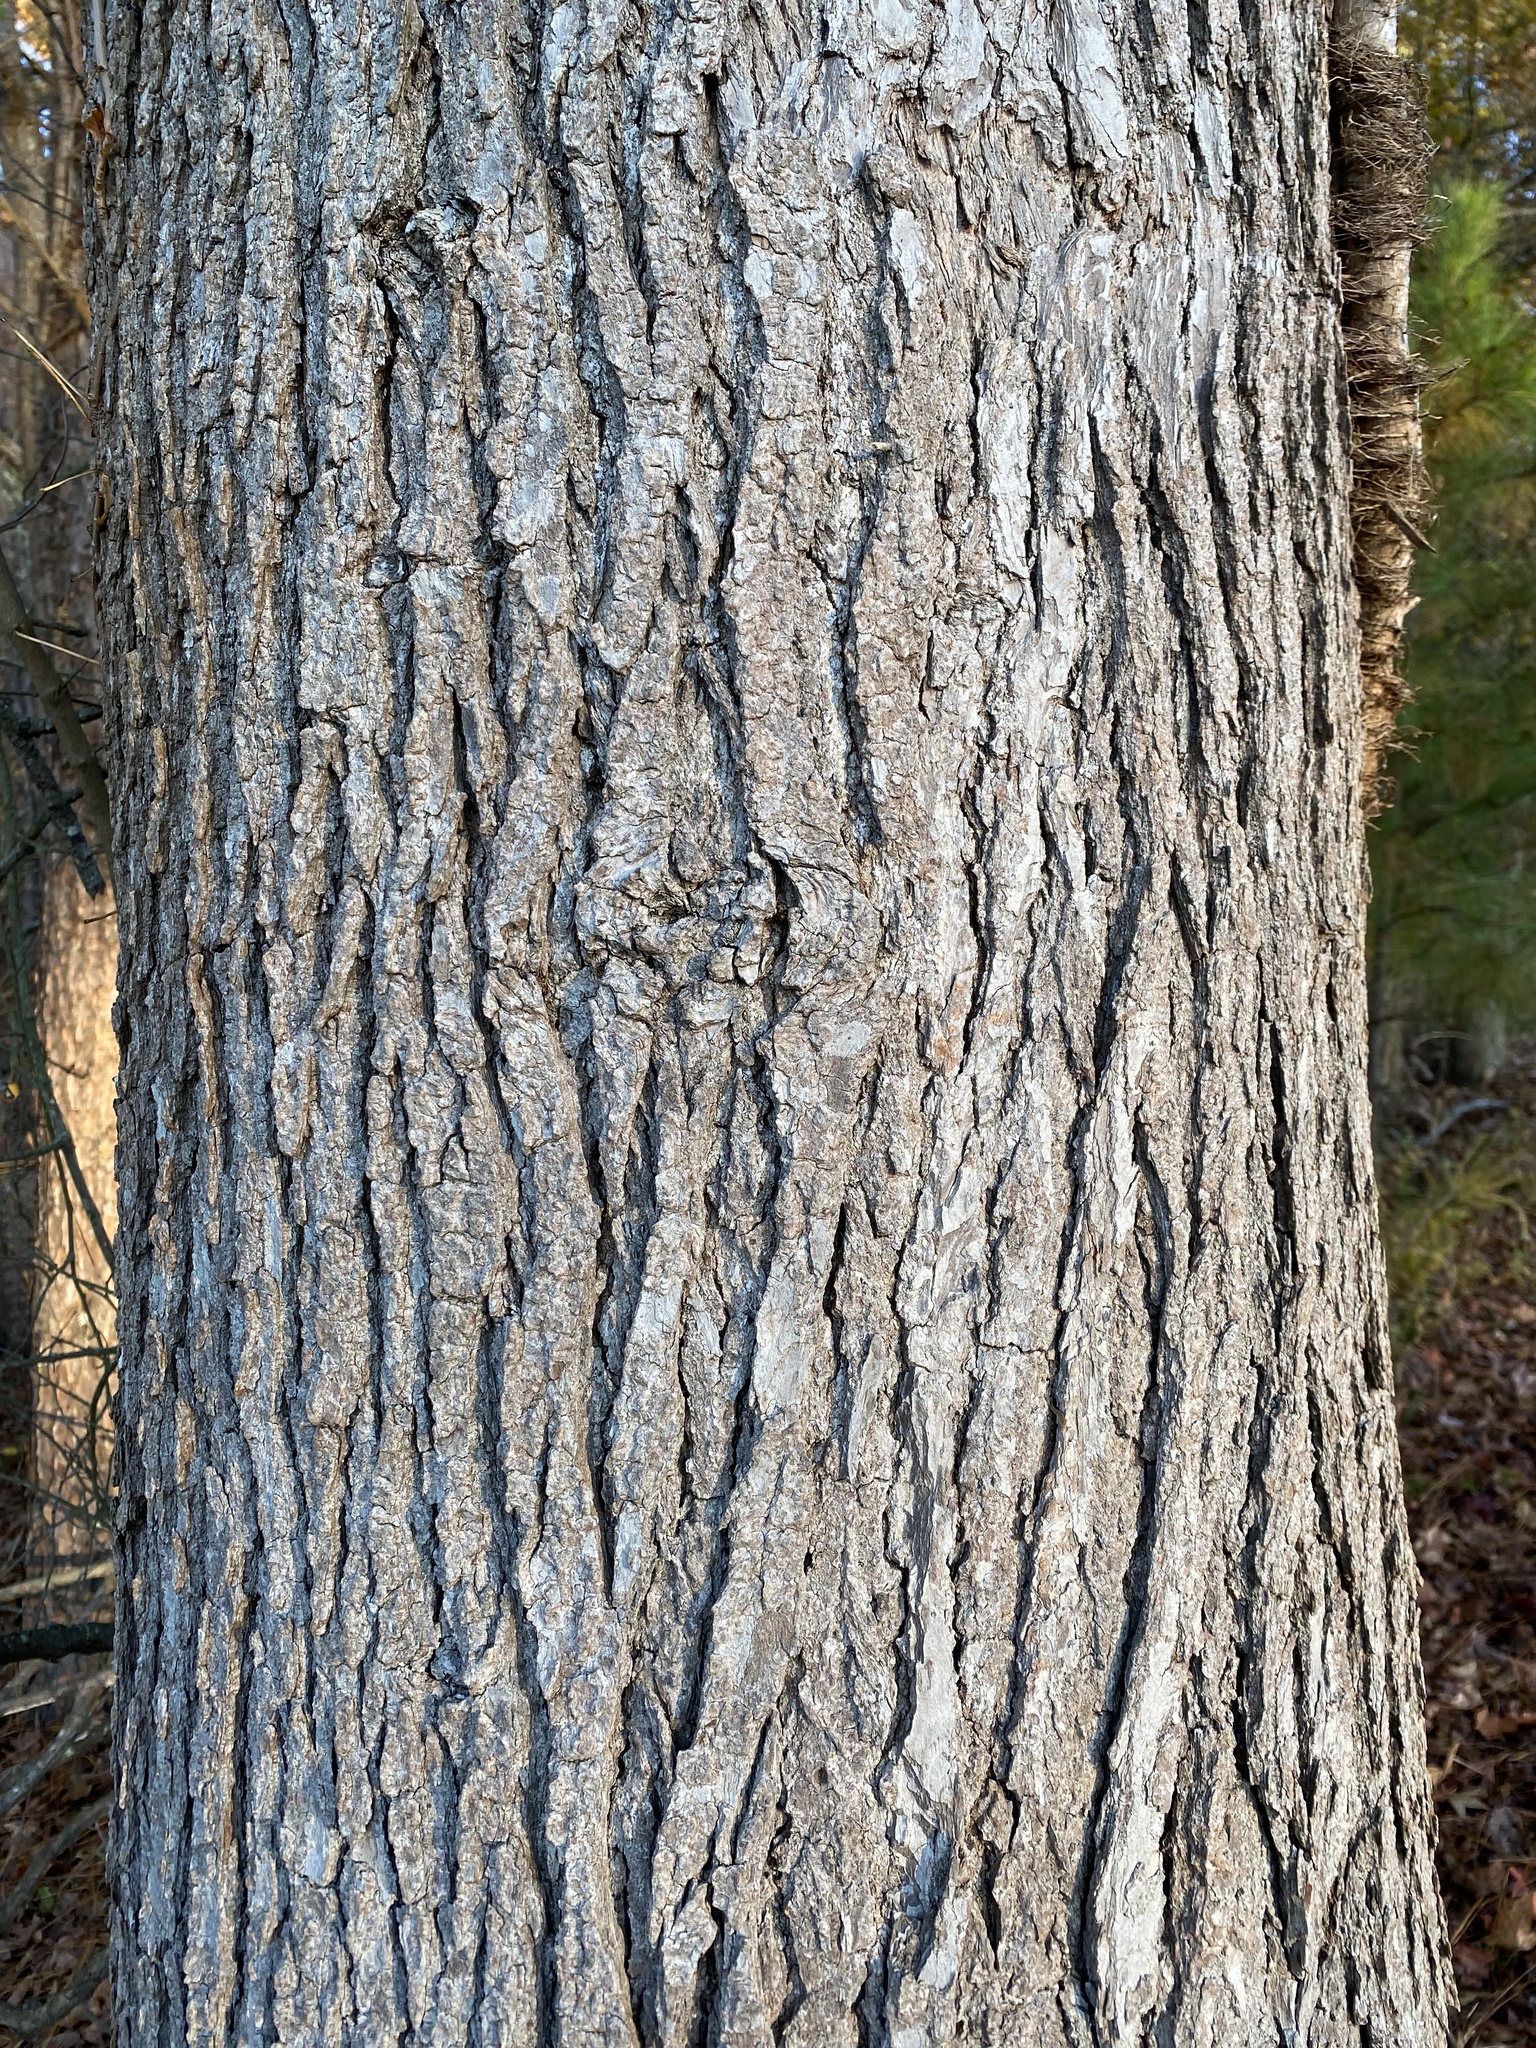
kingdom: Plantae
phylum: Tracheophyta
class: Magnoliopsida
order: Saxifragales
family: Altingiaceae
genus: Liquidambar
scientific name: Liquidambar styraciflua
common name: Sweet gum
